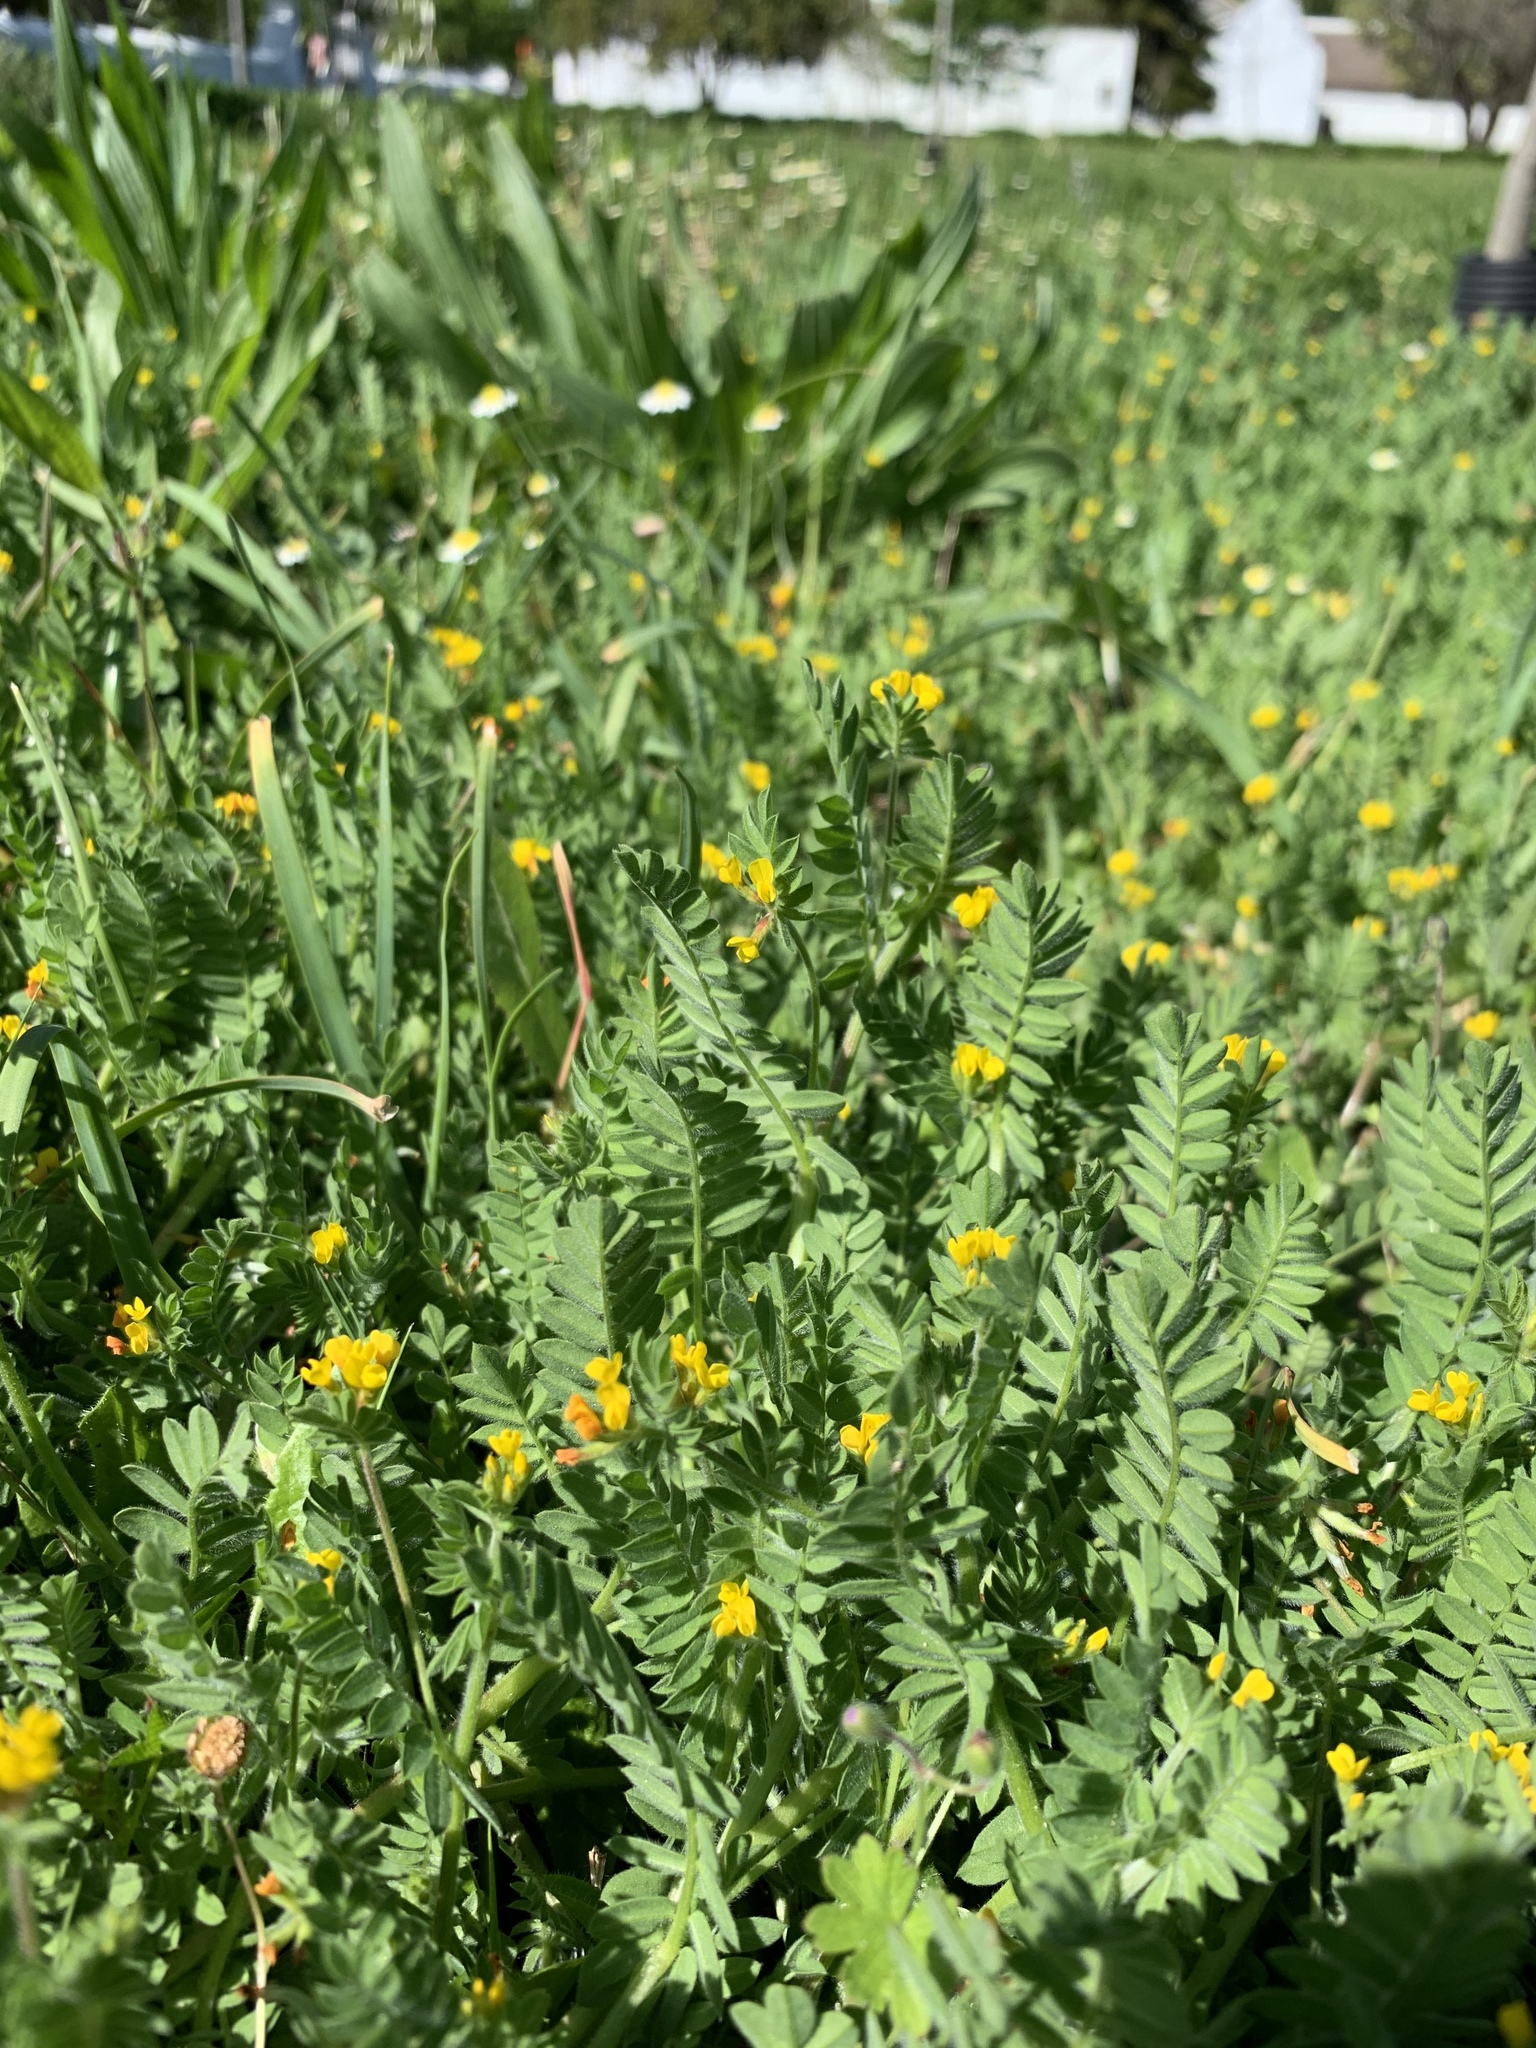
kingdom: Plantae
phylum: Tracheophyta
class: Magnoliopsida
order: Fabales
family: Fabaceae
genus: Ornithopus
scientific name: Ornithopus compressus
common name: Yellow serradella
